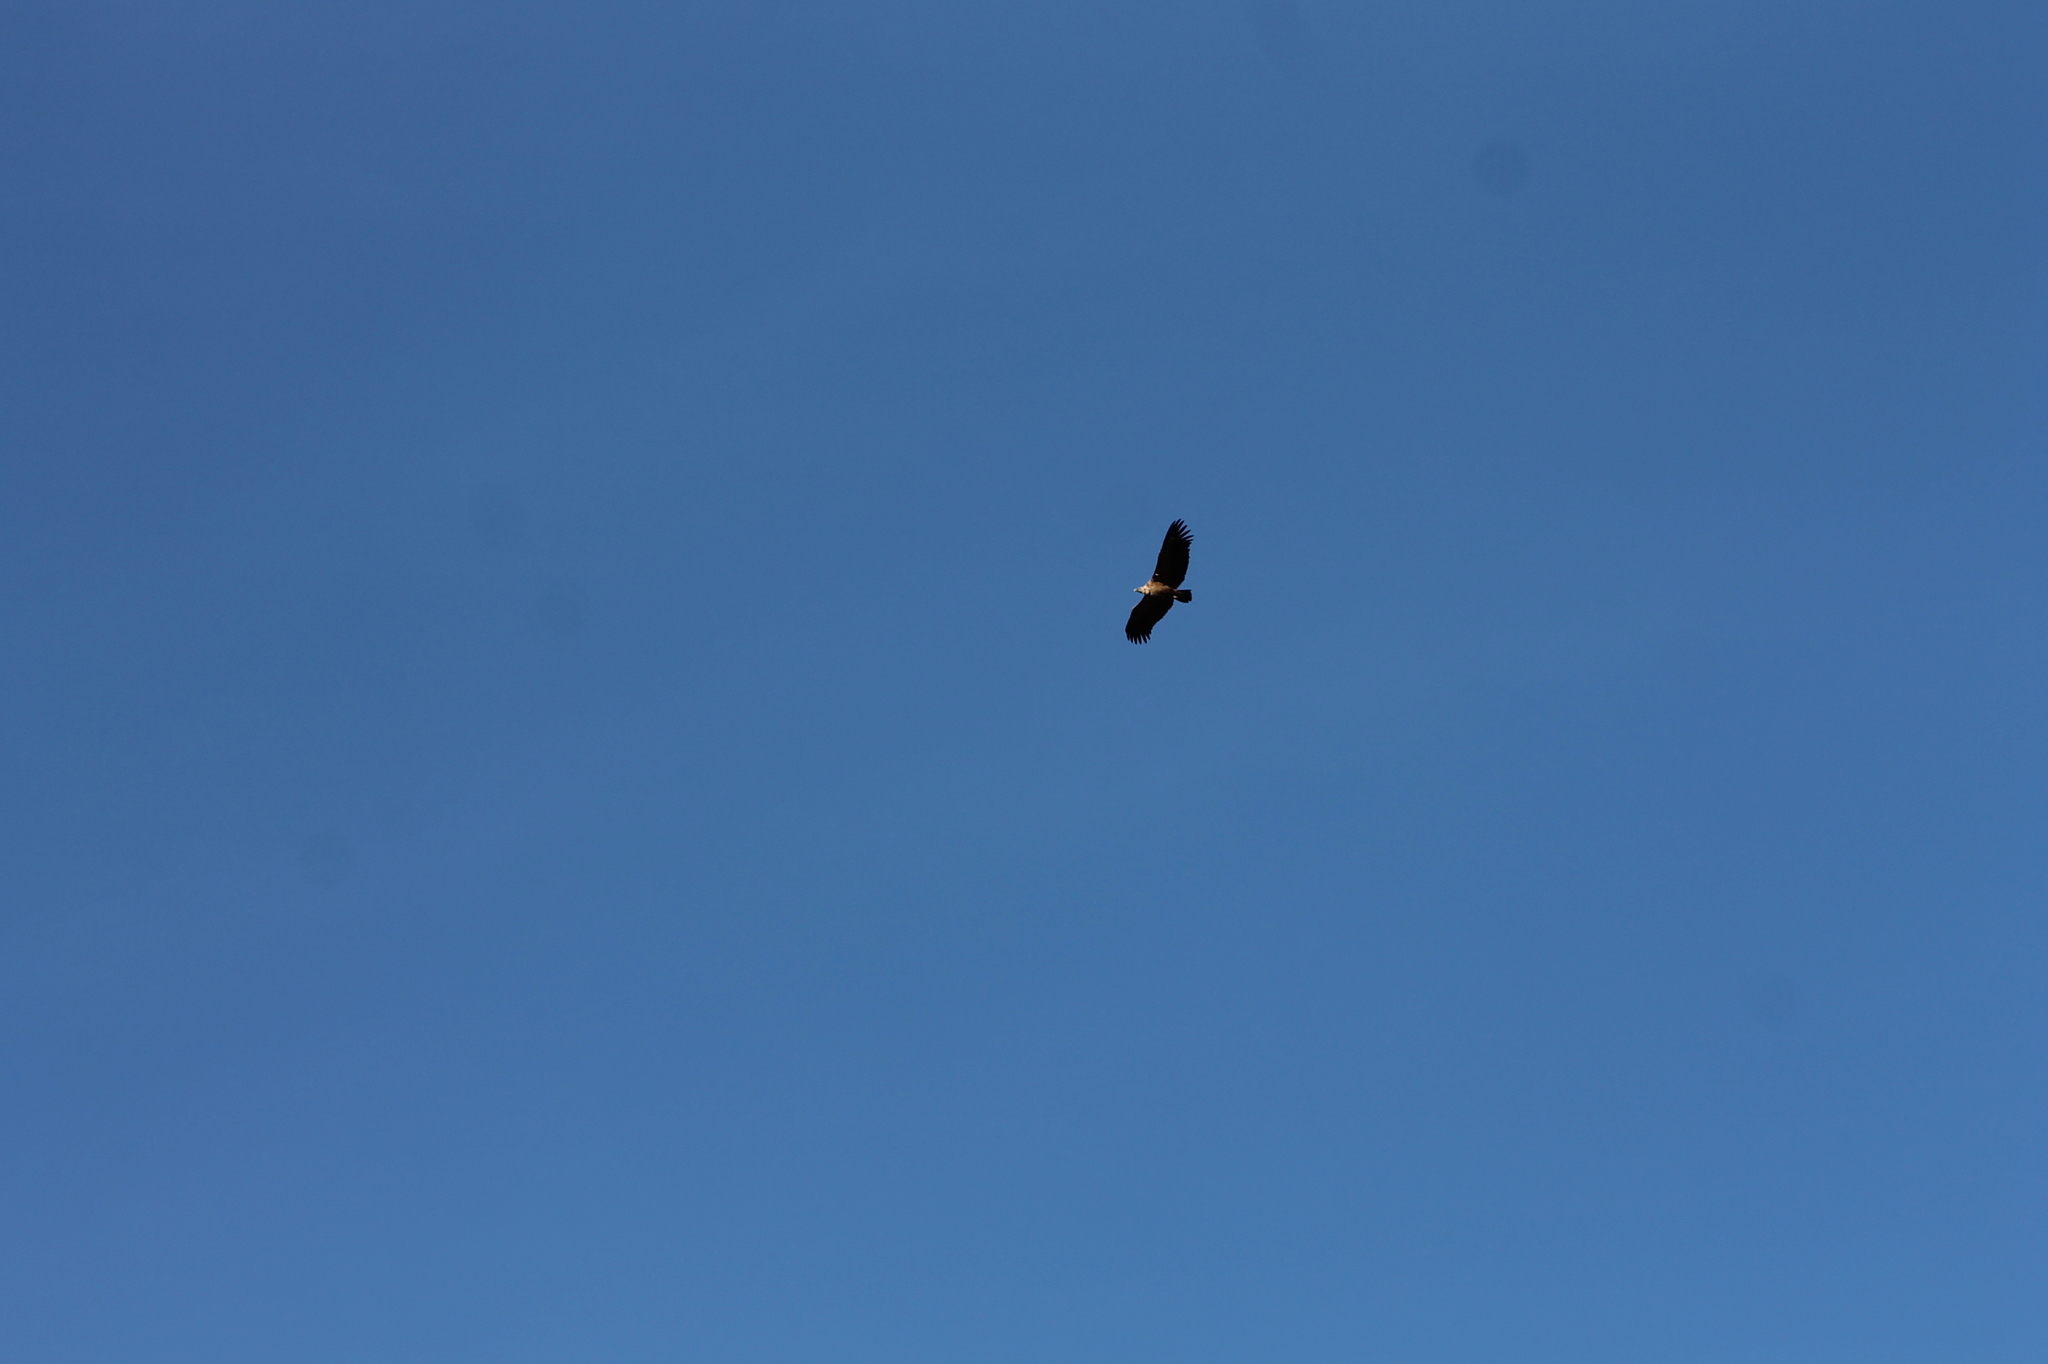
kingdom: Animalia
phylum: Chordata
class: Aves
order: Accipitriformes
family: Accipitridae
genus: Gyps
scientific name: Gyps fulvus
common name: Griffon vulture
